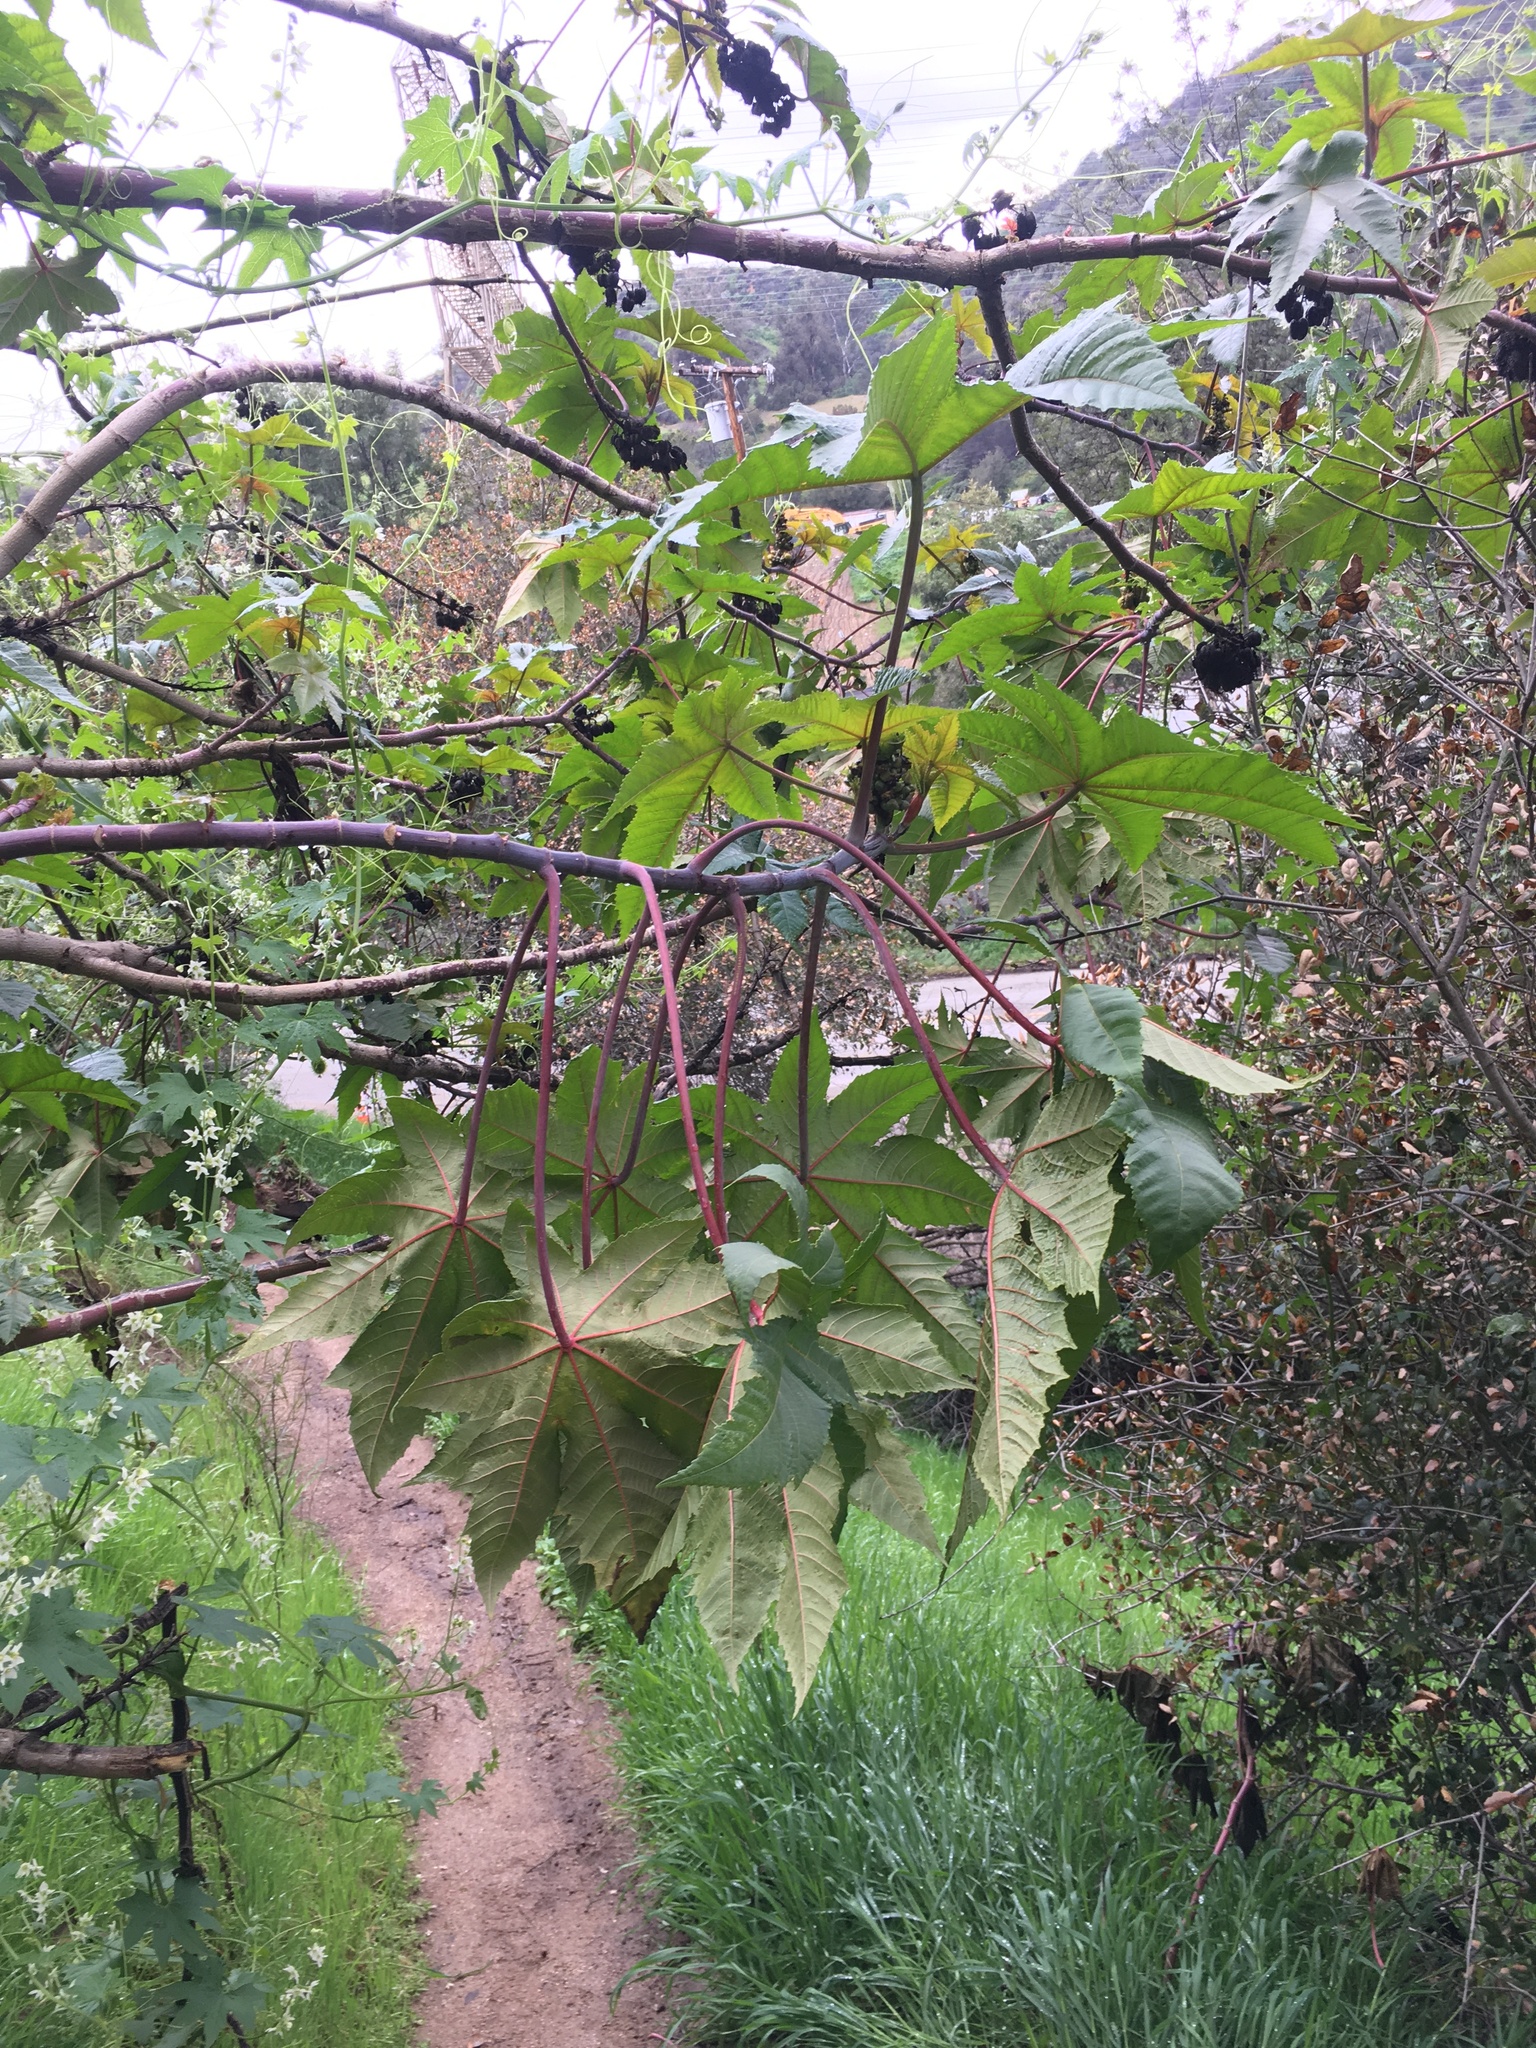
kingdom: Plantae
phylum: Tracheophyta
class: Magnoliopsida
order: Malpighiales
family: Euphorbiaceae
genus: Ricinus
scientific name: Ricinus communis
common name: Castor-oil-plant
